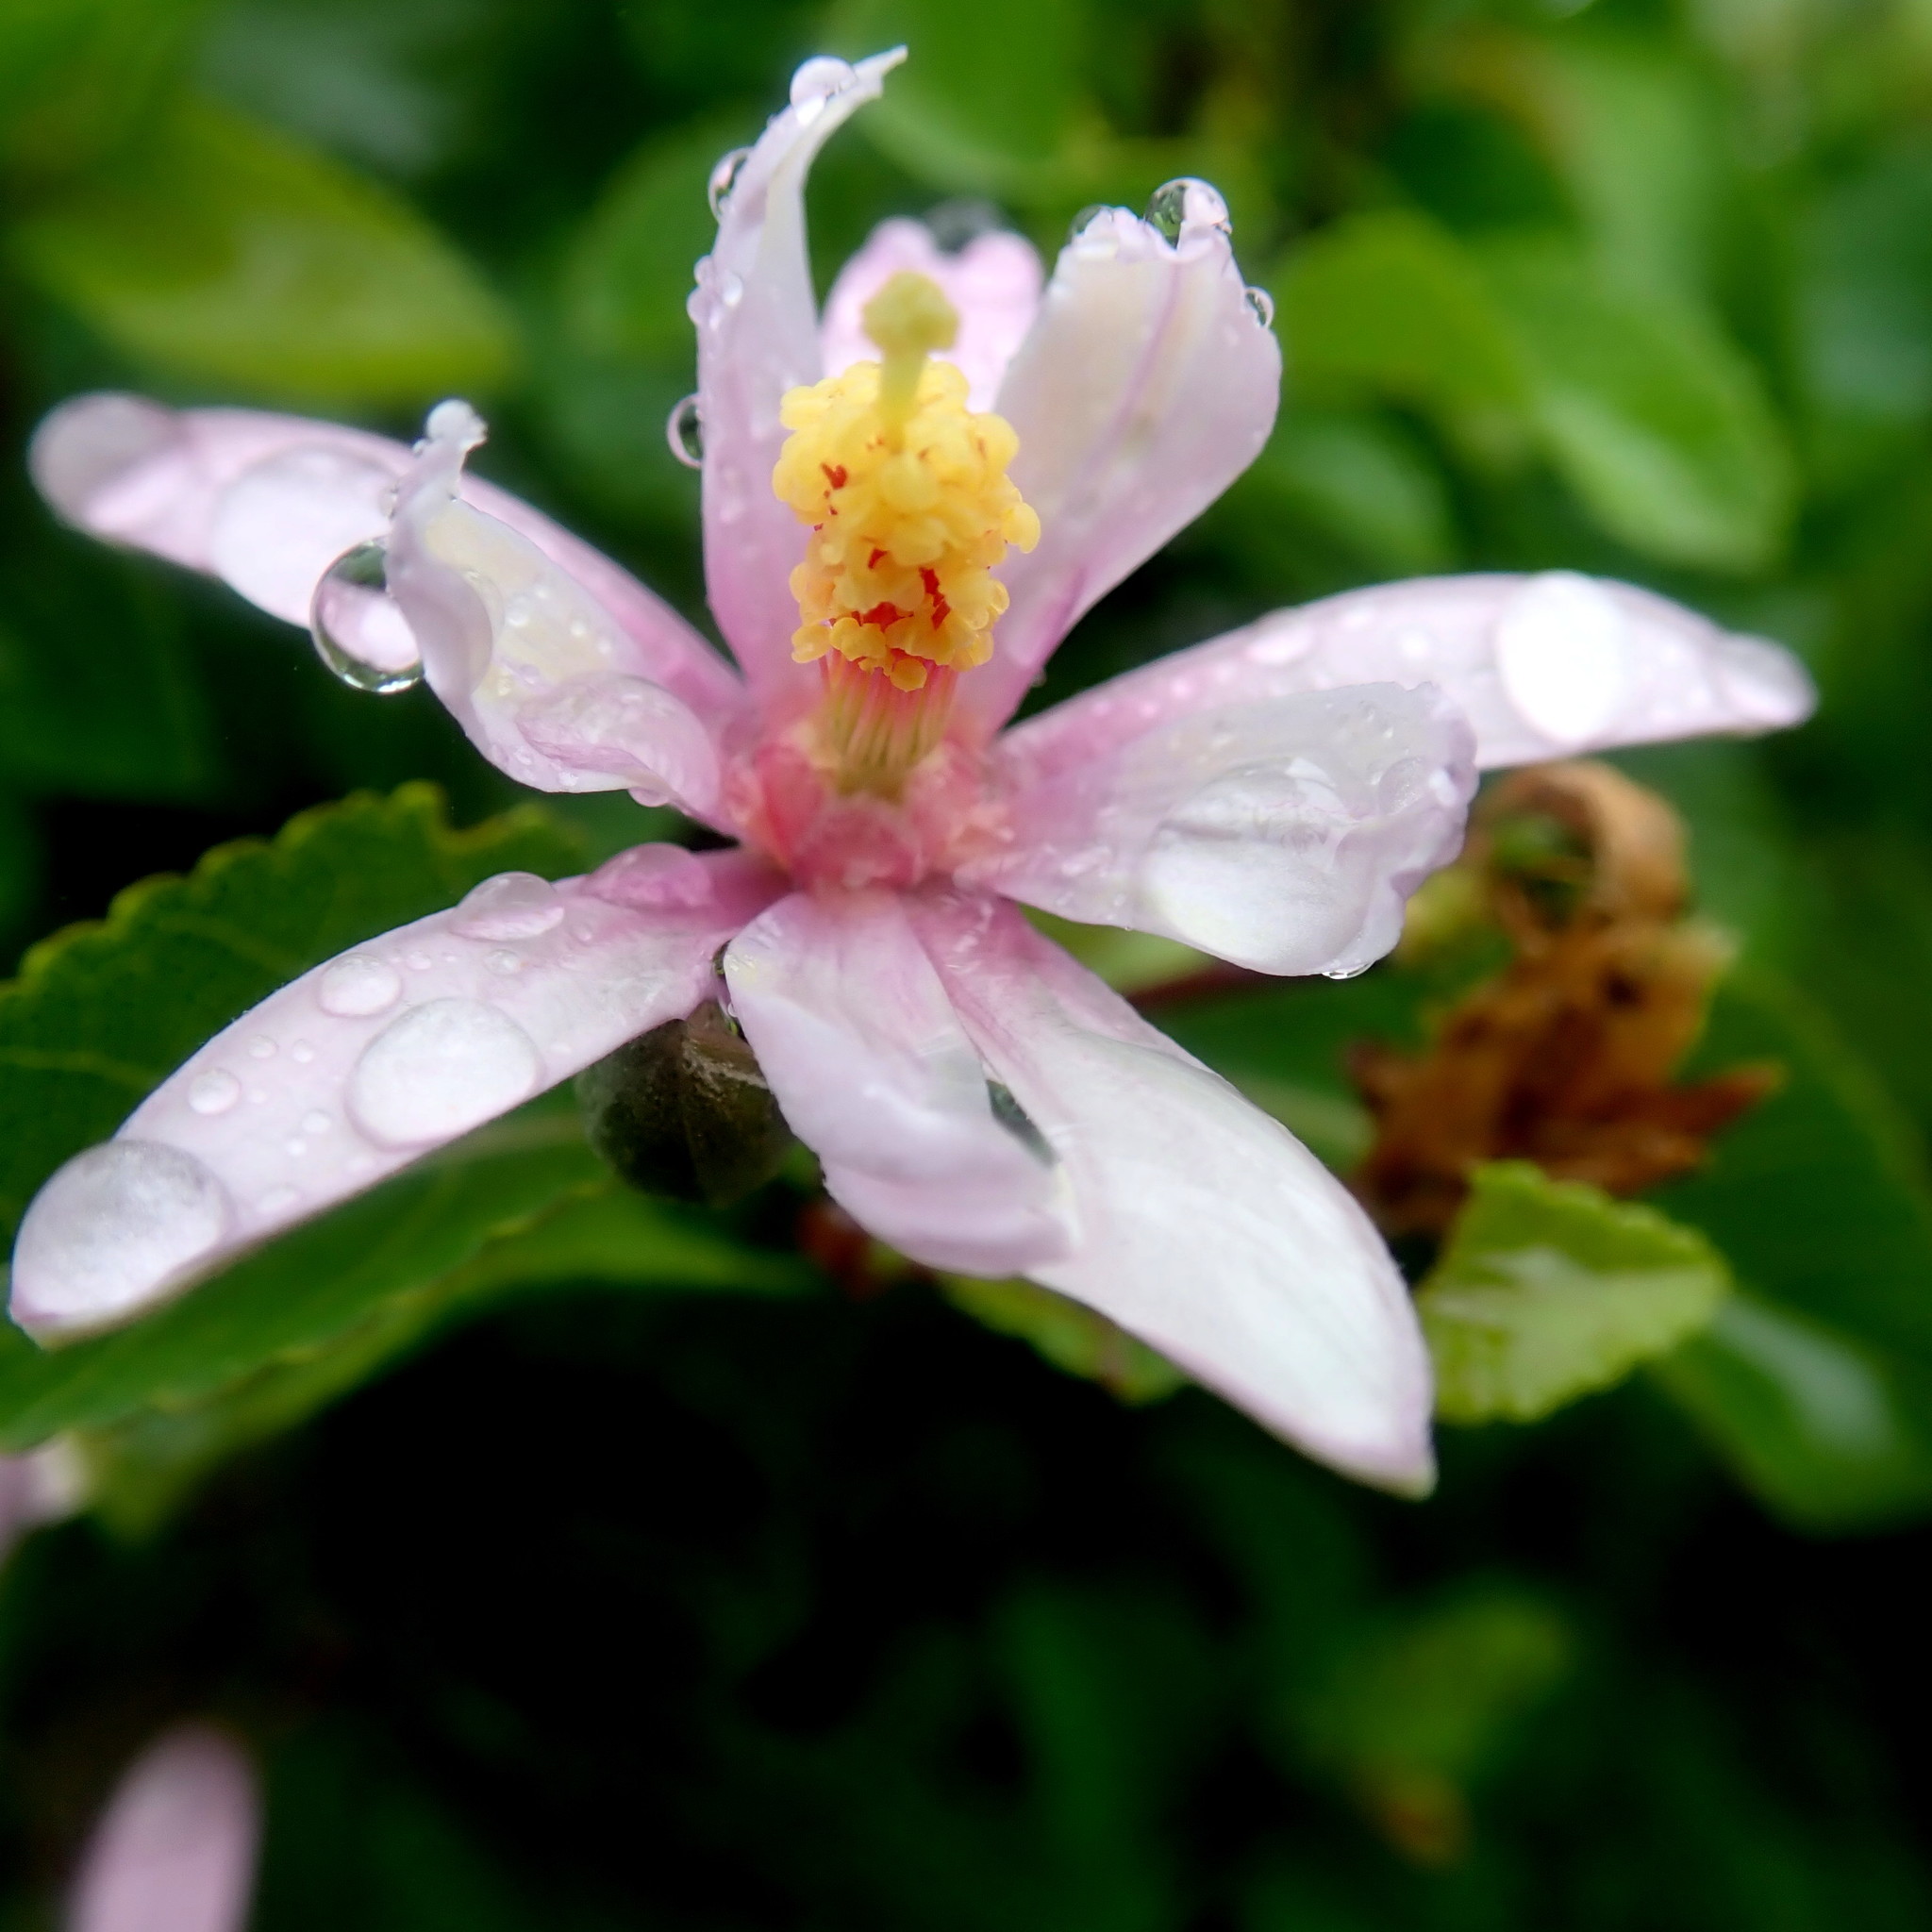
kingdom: Plantae
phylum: Tracheophyta
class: Magnoliopsida
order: Malvales
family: Malvaceae
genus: Grewia
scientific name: Grewia occidentalis
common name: Crossberry
